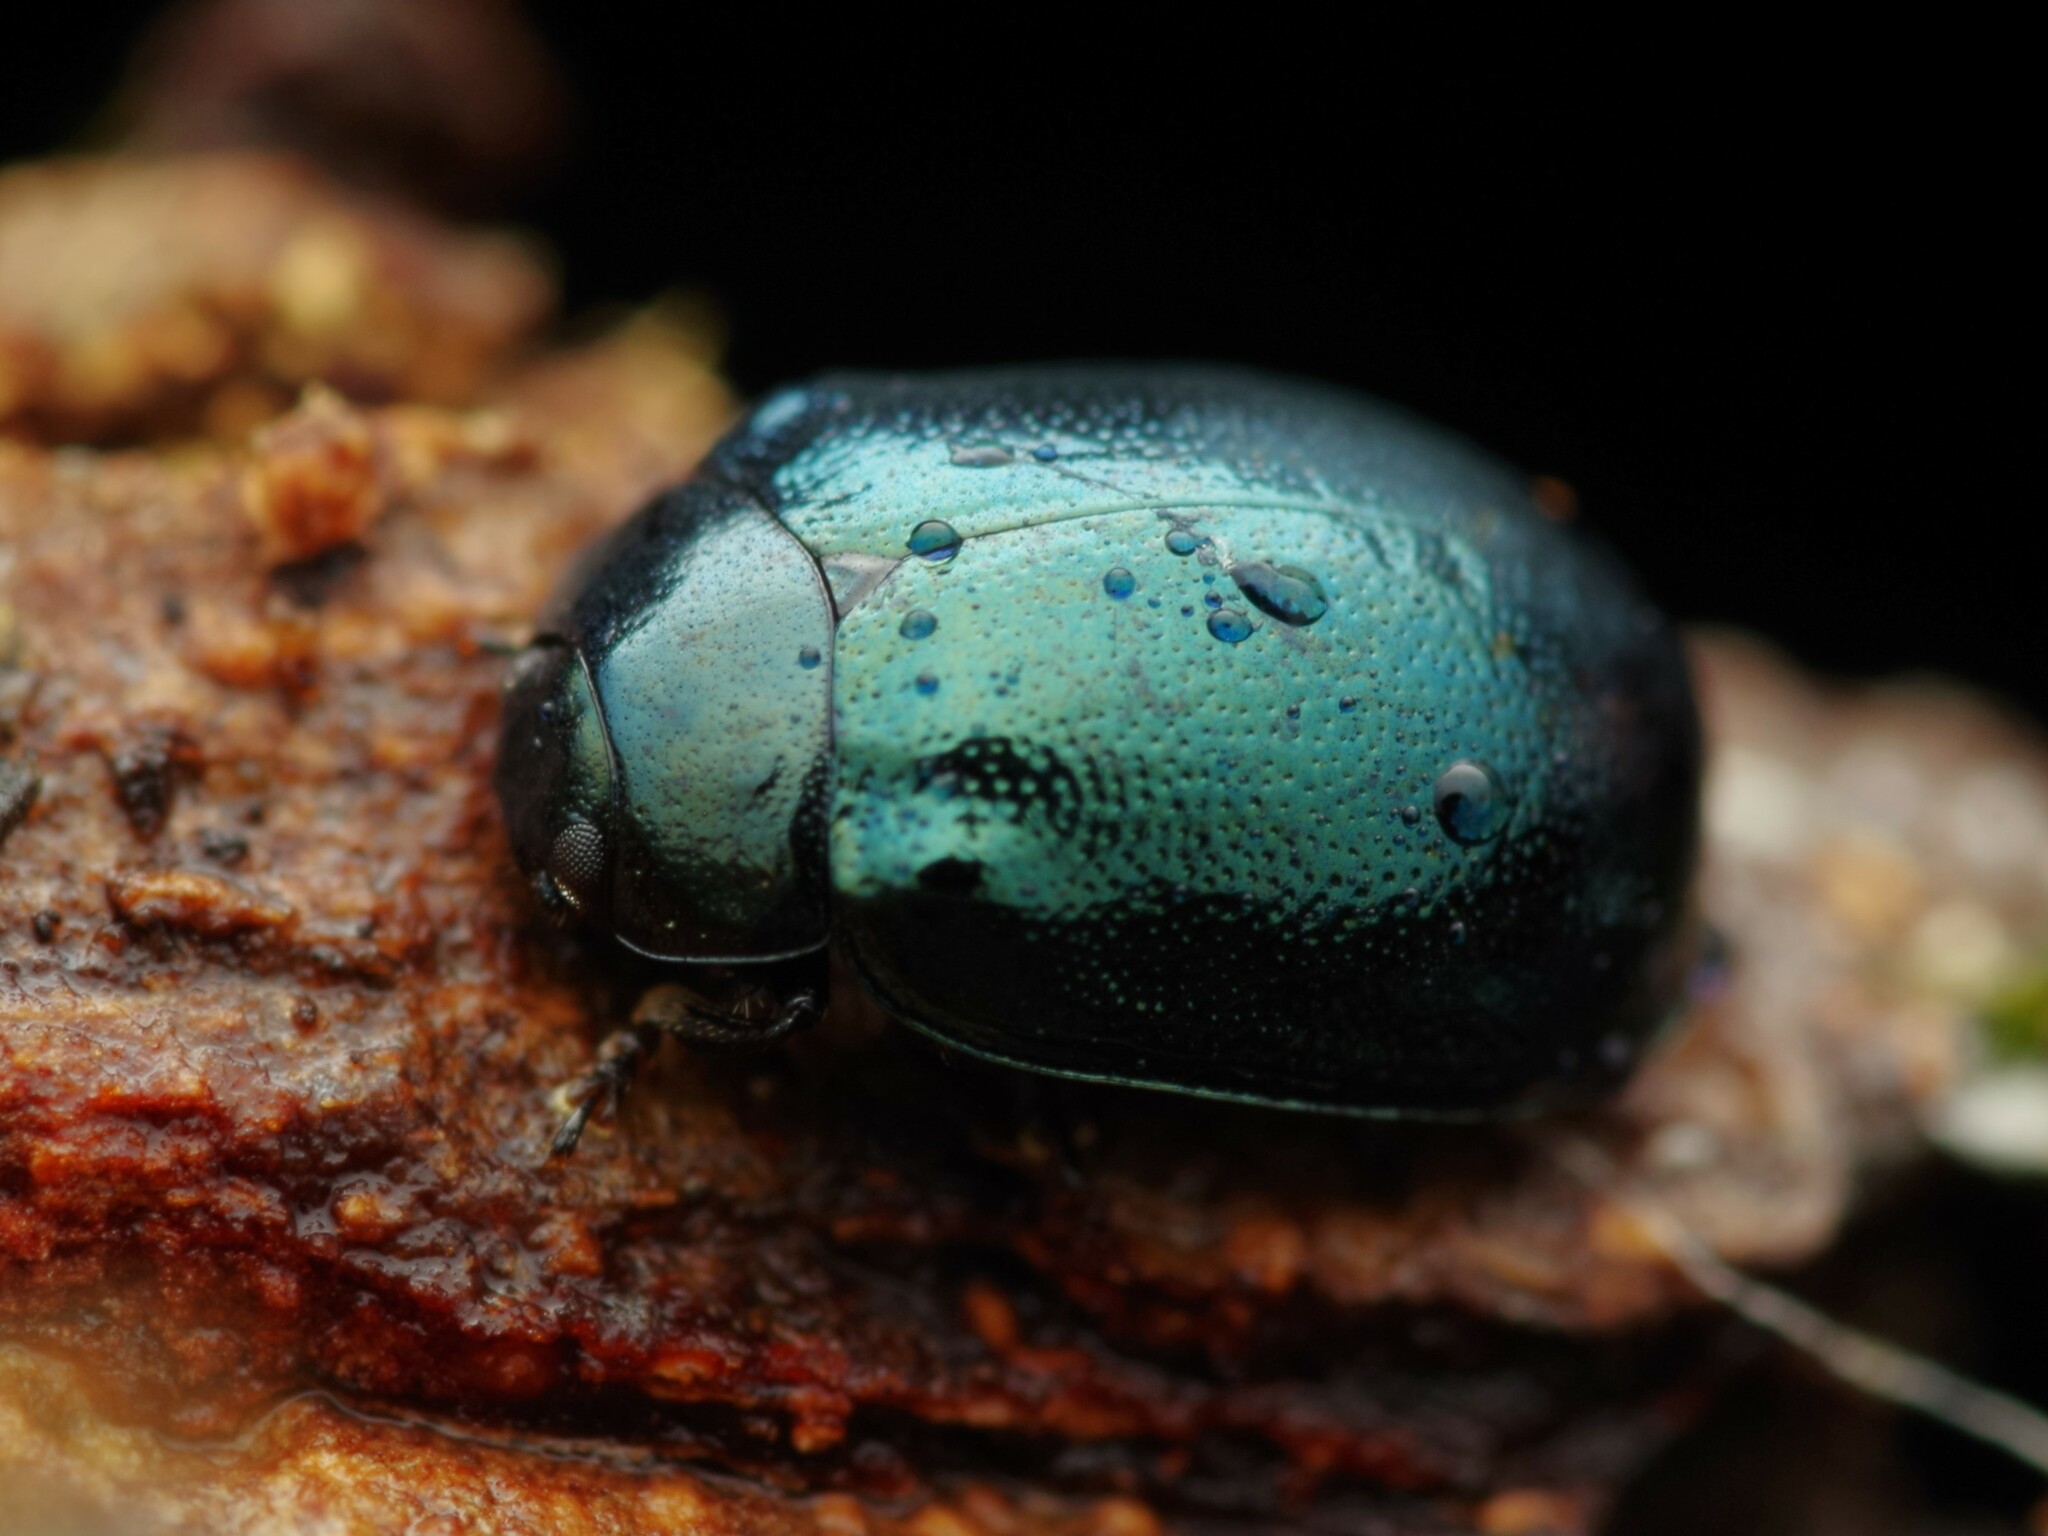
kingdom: Animalia
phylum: Arthropoda
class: Insecta
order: Coleoptera
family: Chrysomelidae
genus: Plagiodera
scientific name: Plagiodera versicolora
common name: Imported willow leaf beetle
